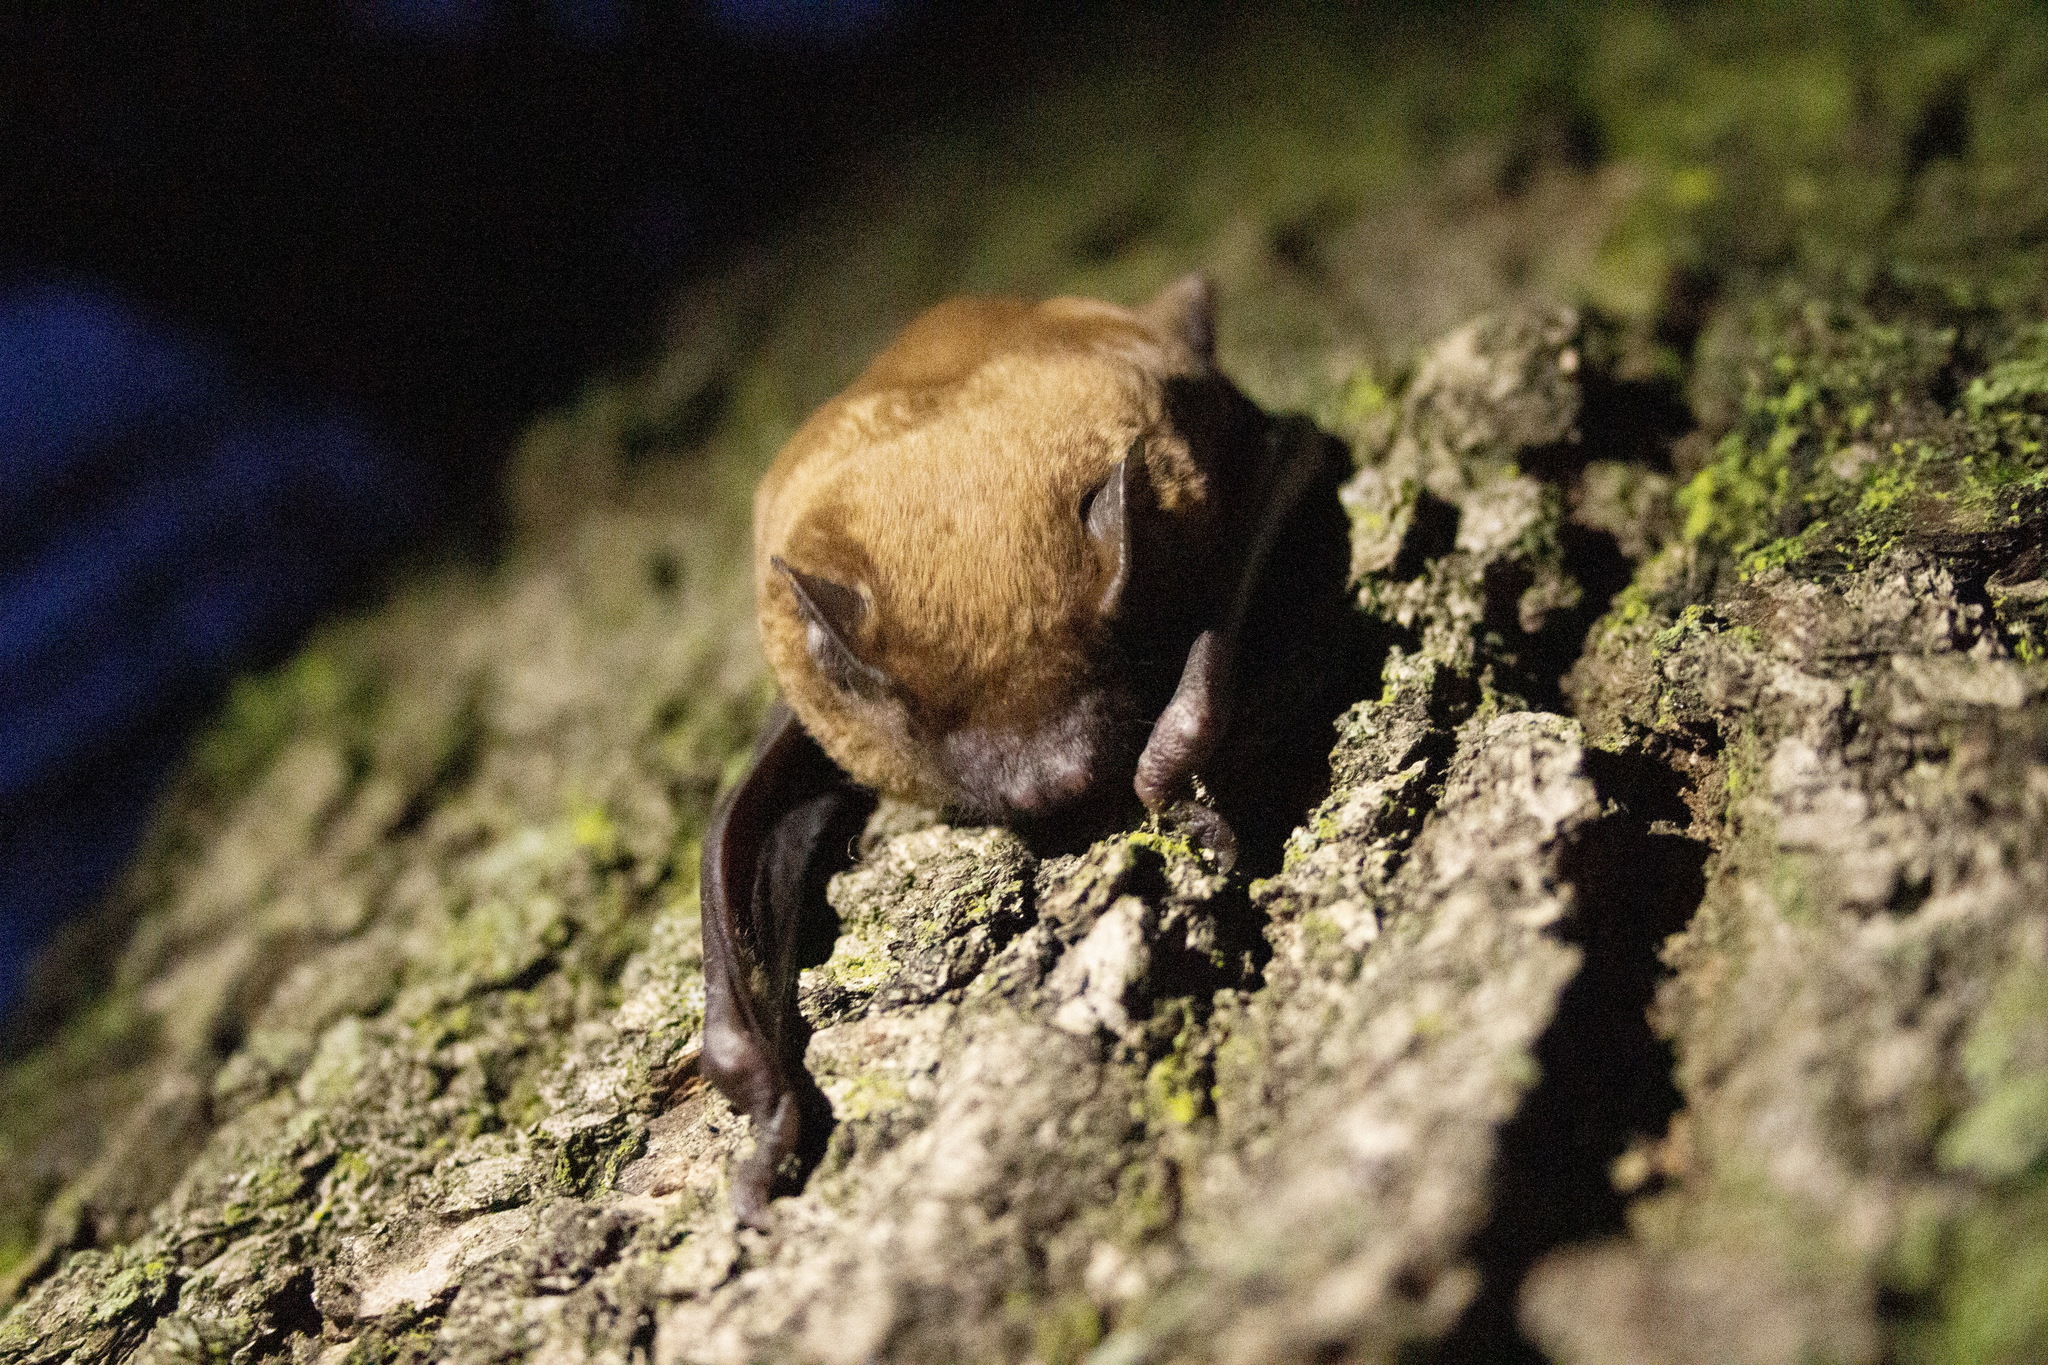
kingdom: Animalia
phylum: Chordata
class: Mammalia
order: Chiroptera
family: Vespertilionidae
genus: Nyctalus
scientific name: Nyctalus noctula
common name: Noctule
